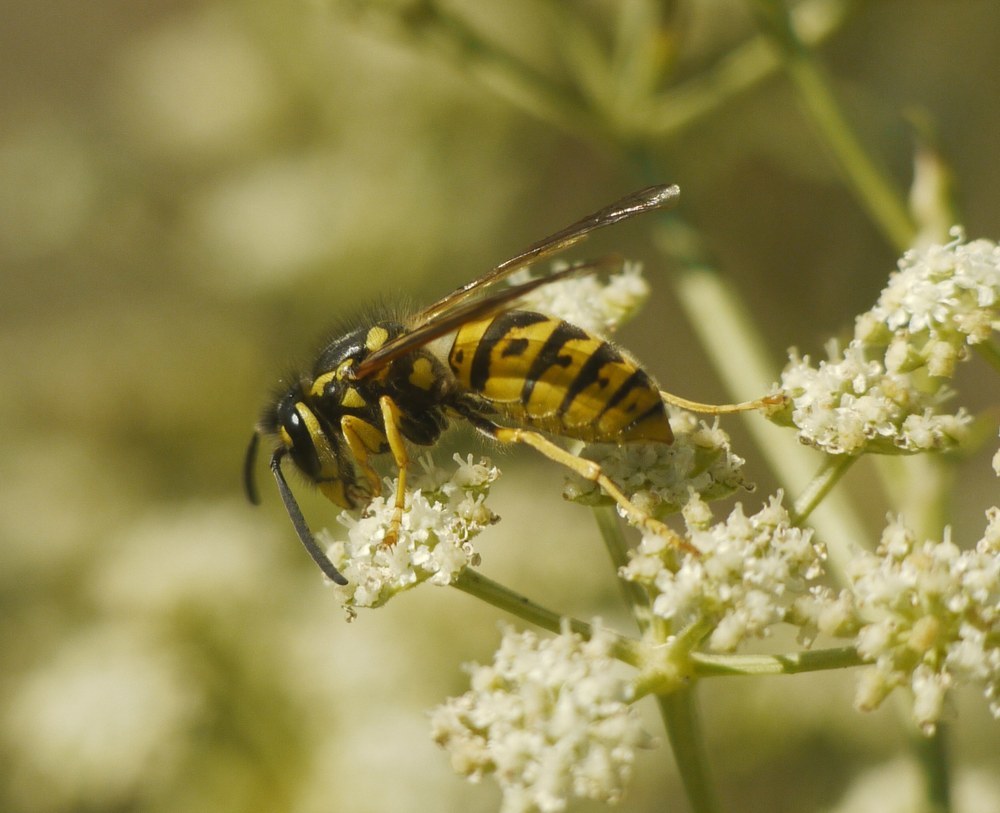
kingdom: Animalia
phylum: Arthropoda
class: Insecta
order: Hymenoptera
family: Vespidae
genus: Vespula
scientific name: Vespula germanica
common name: German wasp
